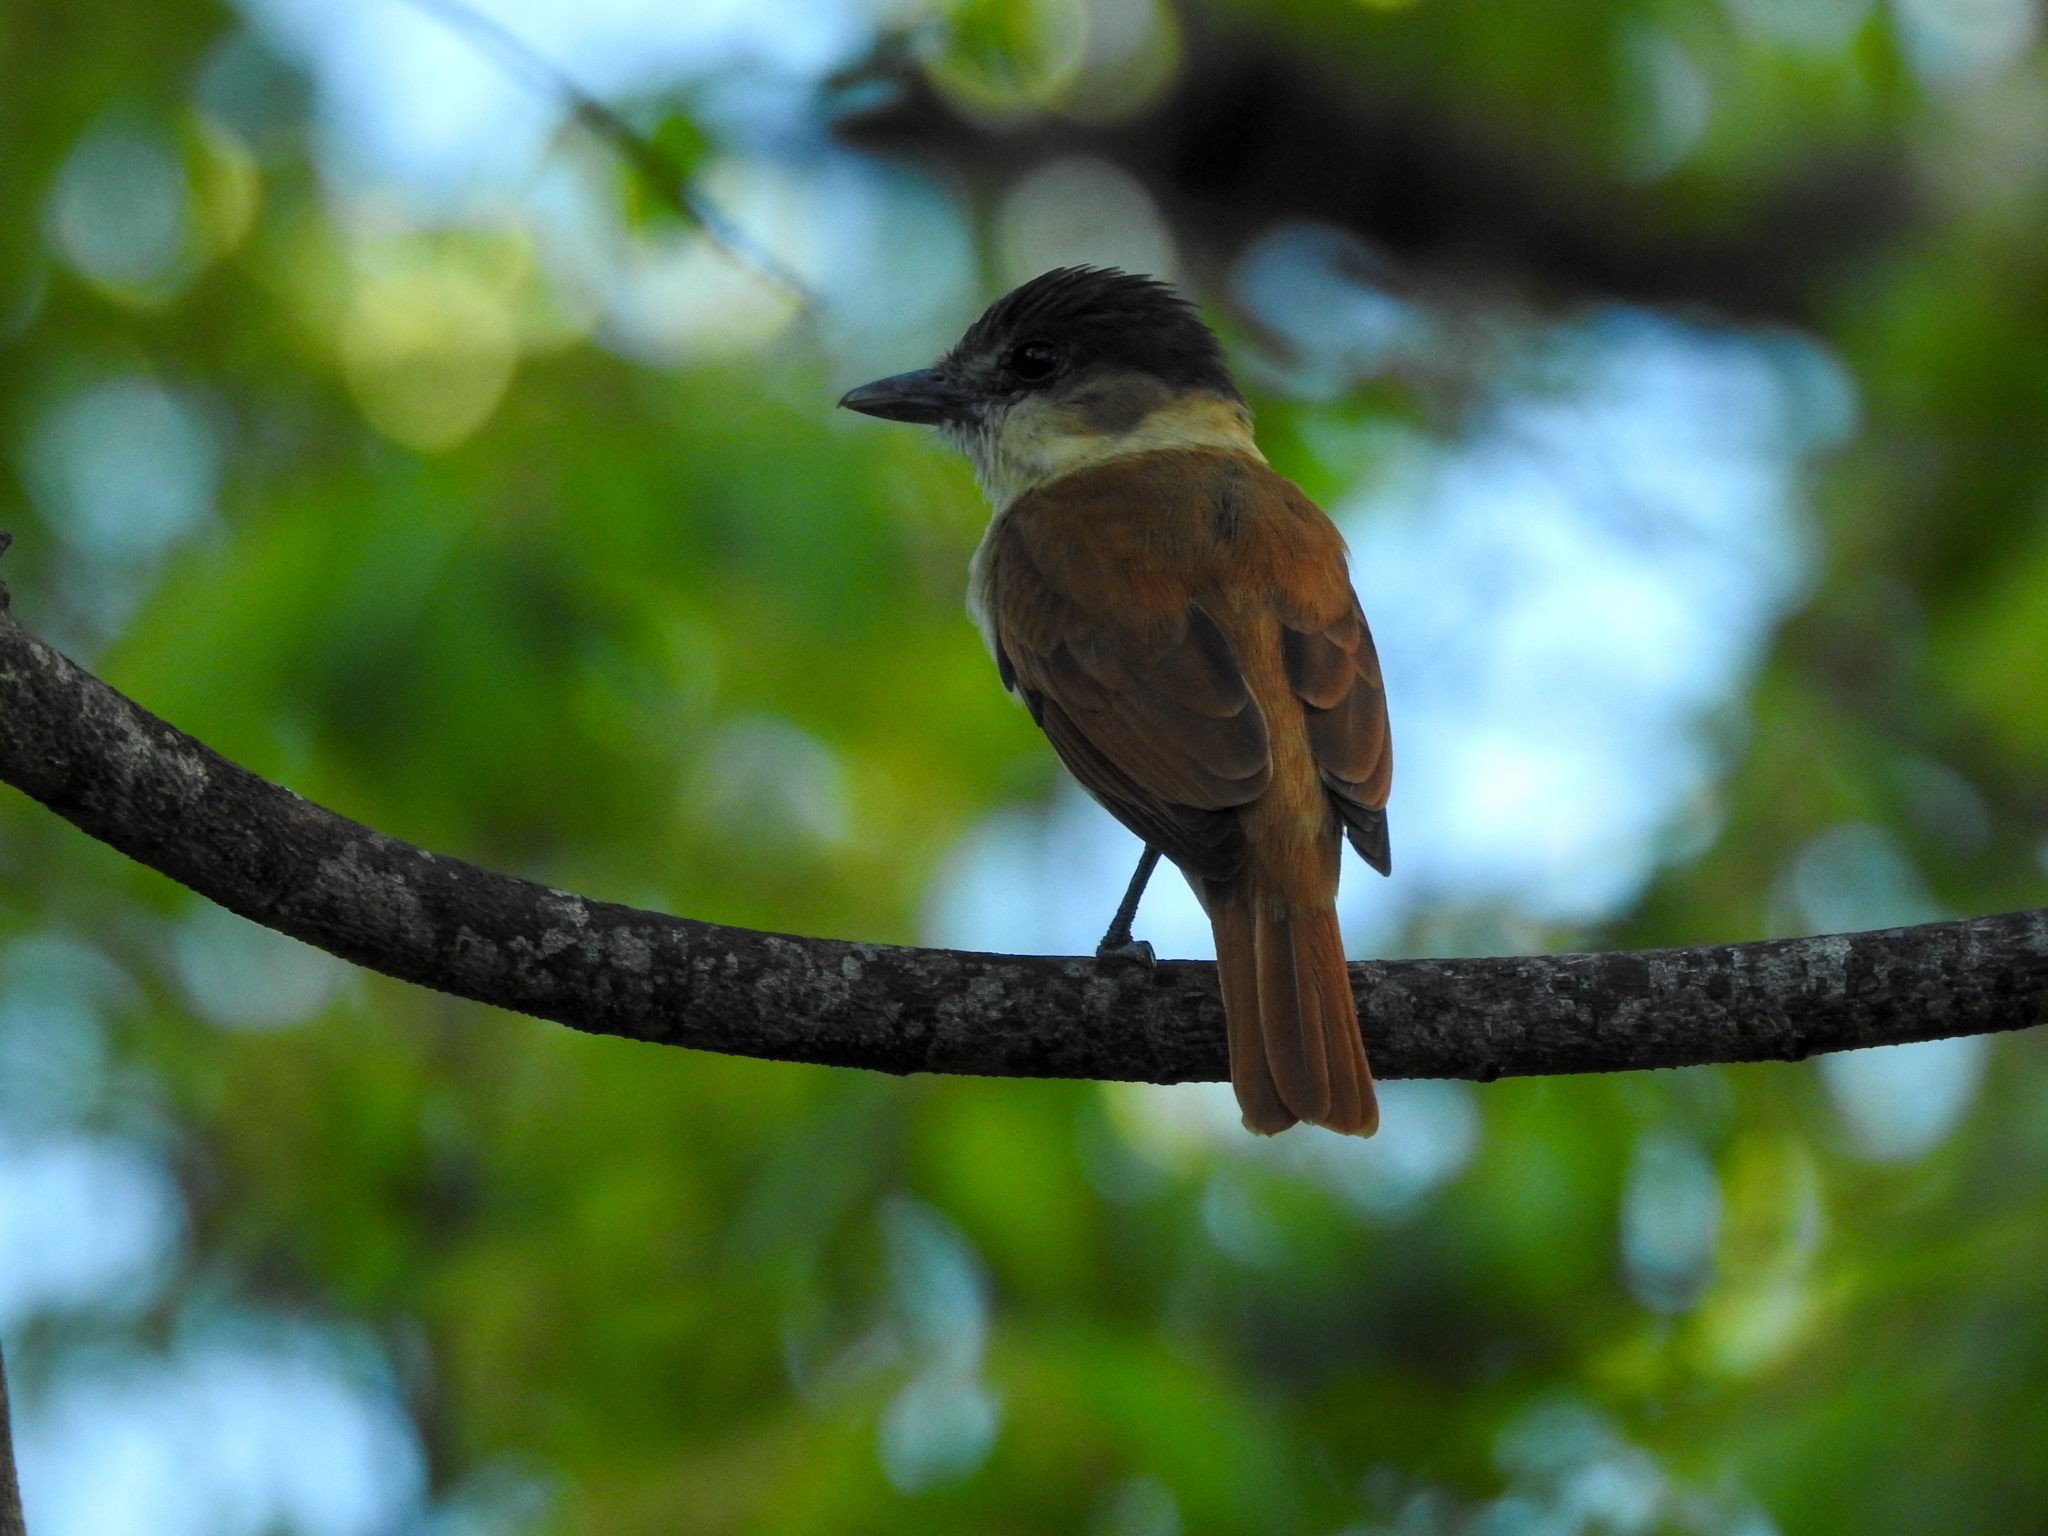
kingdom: Animalia
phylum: Chordata
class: Aves
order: Passeriformes
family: Cotingidae
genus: Pachyramphus
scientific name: Pachyramphus aglaiae
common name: Rose-throated becard
